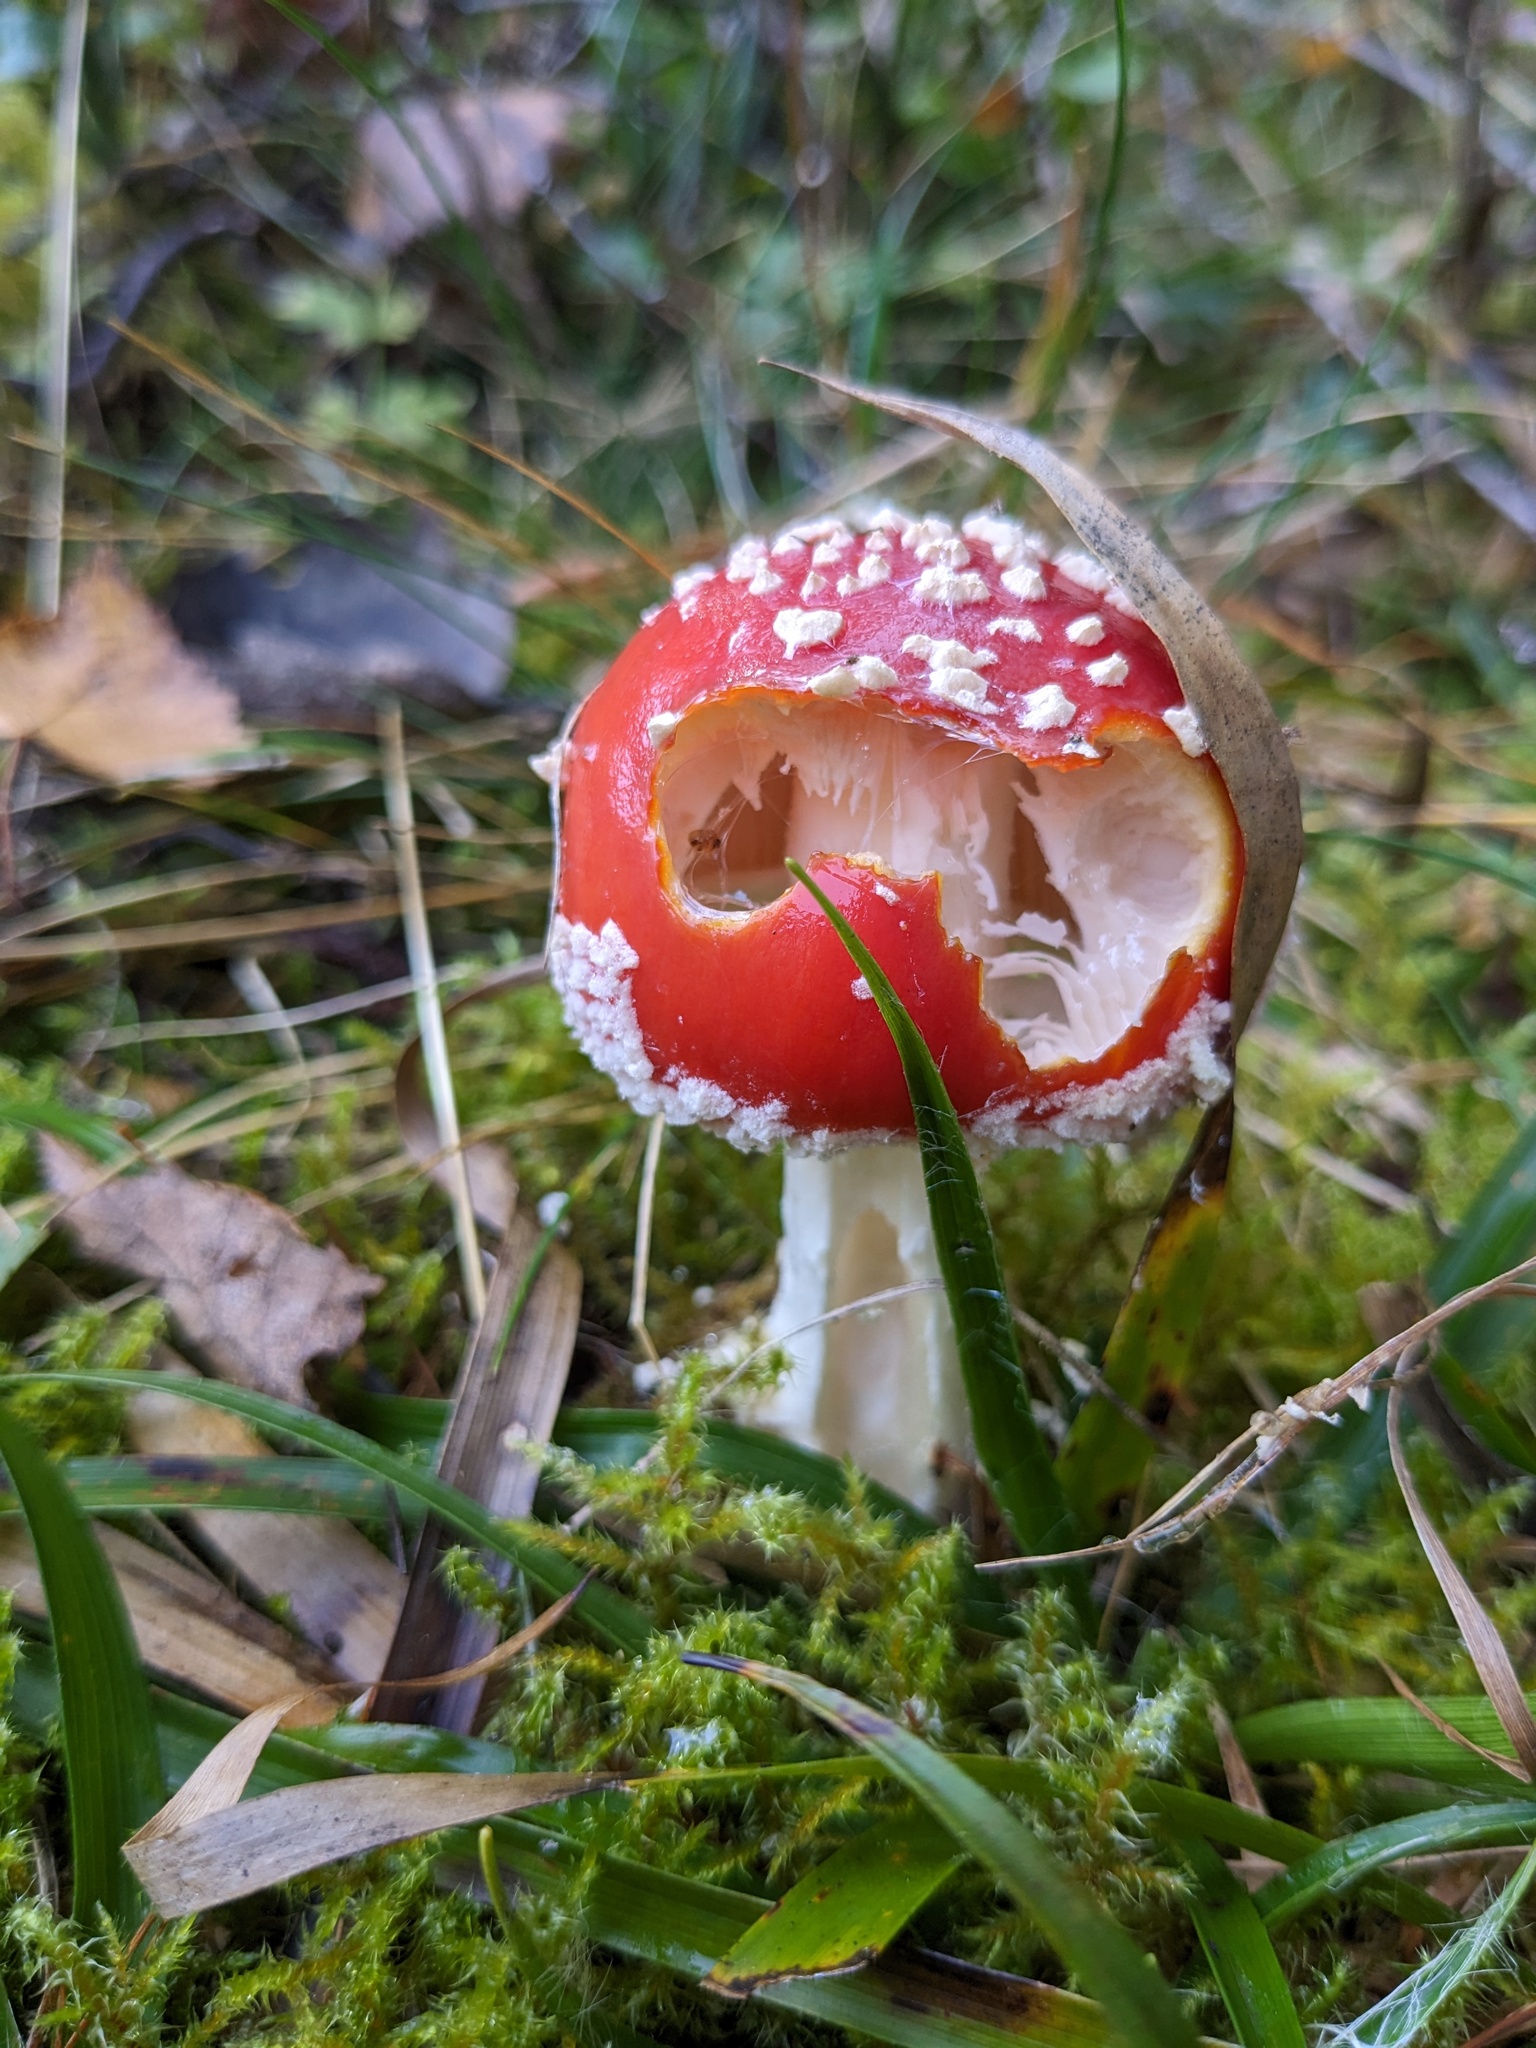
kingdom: Fungi
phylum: Basidiomycota
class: Agaricomycetes
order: Agaricales
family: Amanitaceae
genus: Amanita
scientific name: Amanita muscaria
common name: Fly agaric
